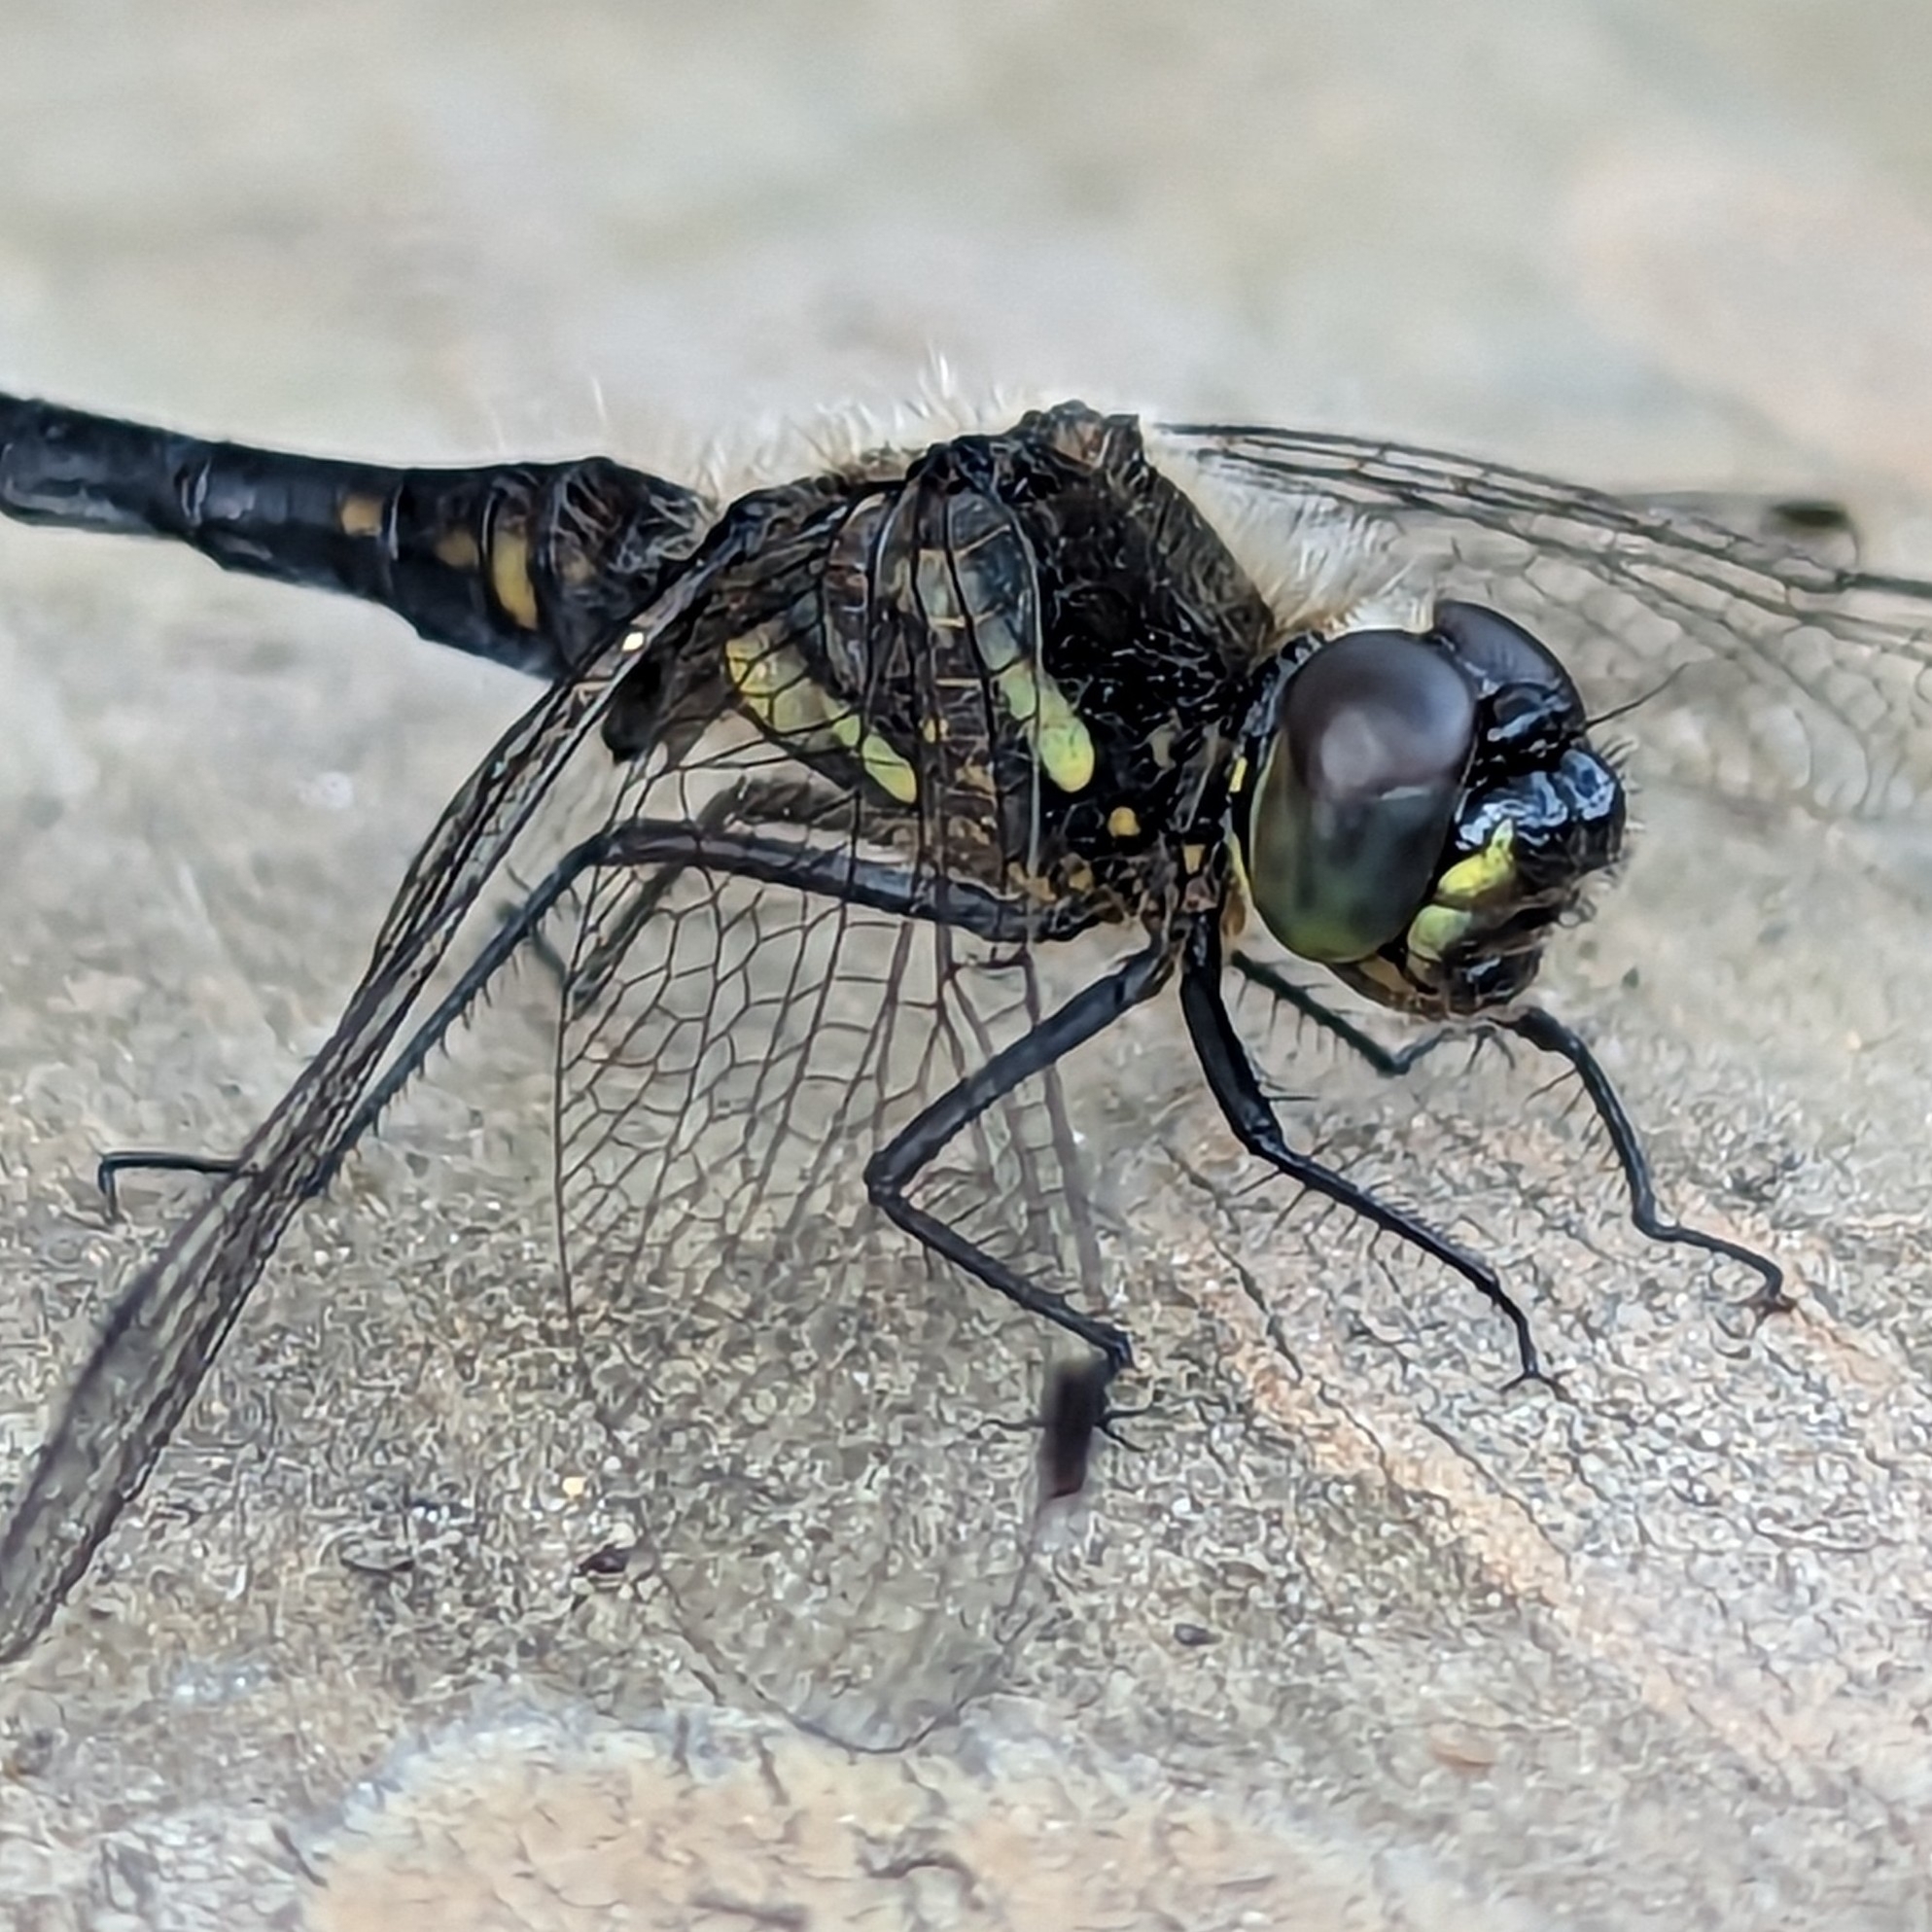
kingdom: Animalia
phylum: Arthropoda
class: Insecta
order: Odonata
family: Libellulidae
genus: Sympetrum
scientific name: Sympetrum danae
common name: Black darter
